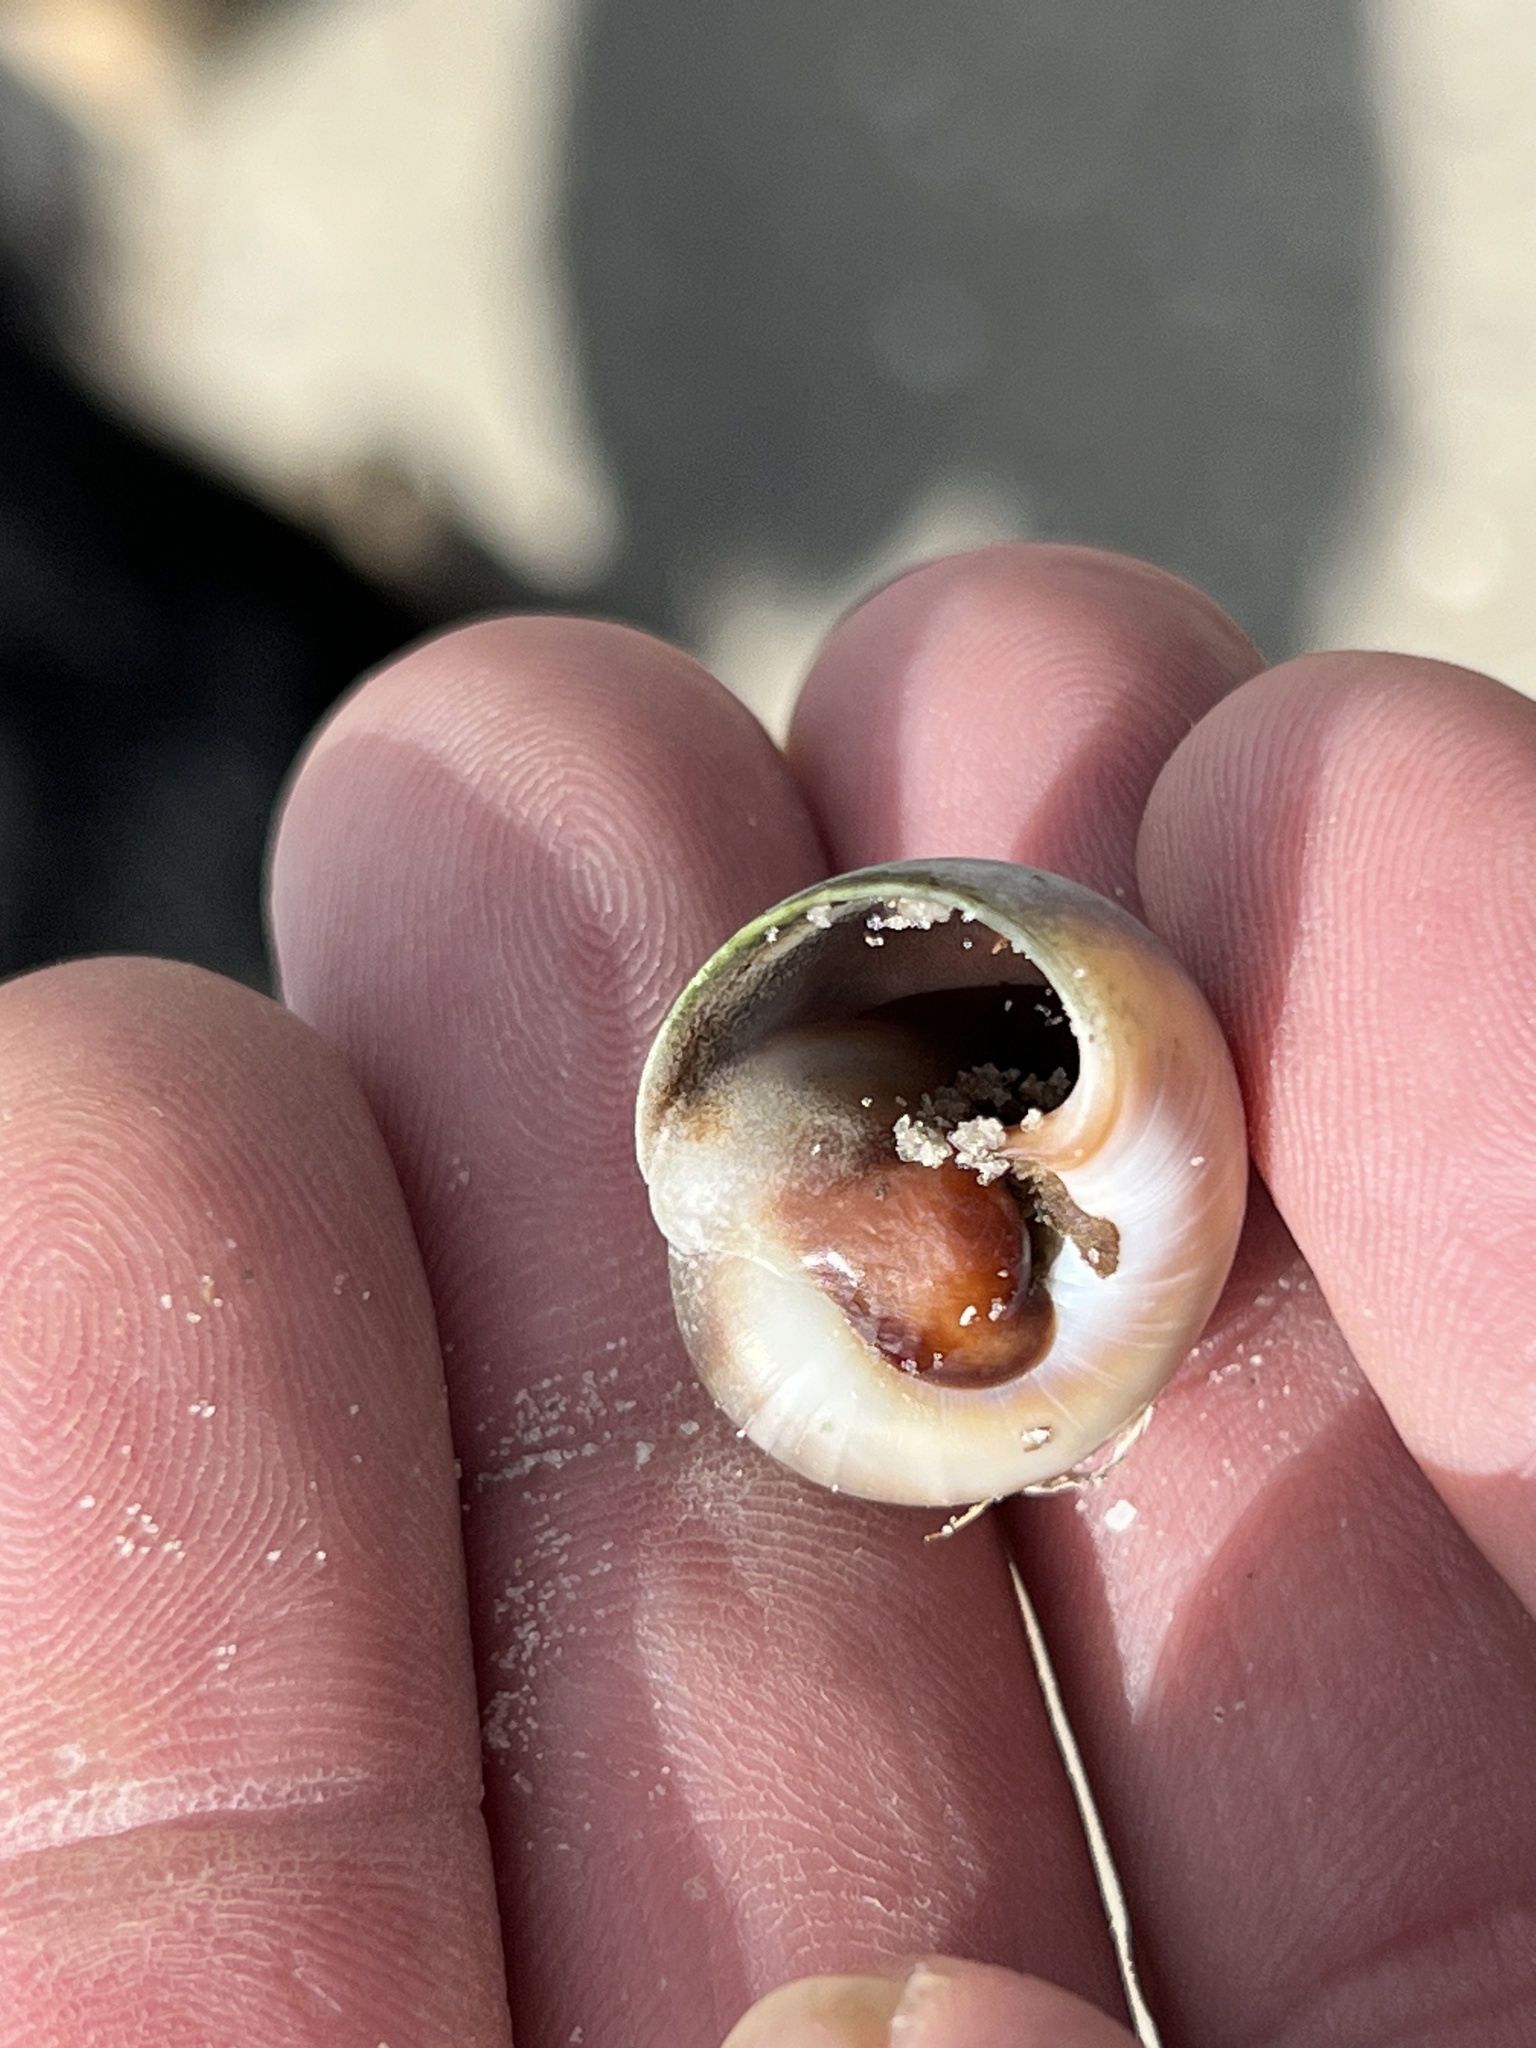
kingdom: Animalia
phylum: Mollusca
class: Gastropoda
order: Littorinimorpha
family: Naticidae
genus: Neverita
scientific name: Neverita duplicata
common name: Lobed moonsnail
